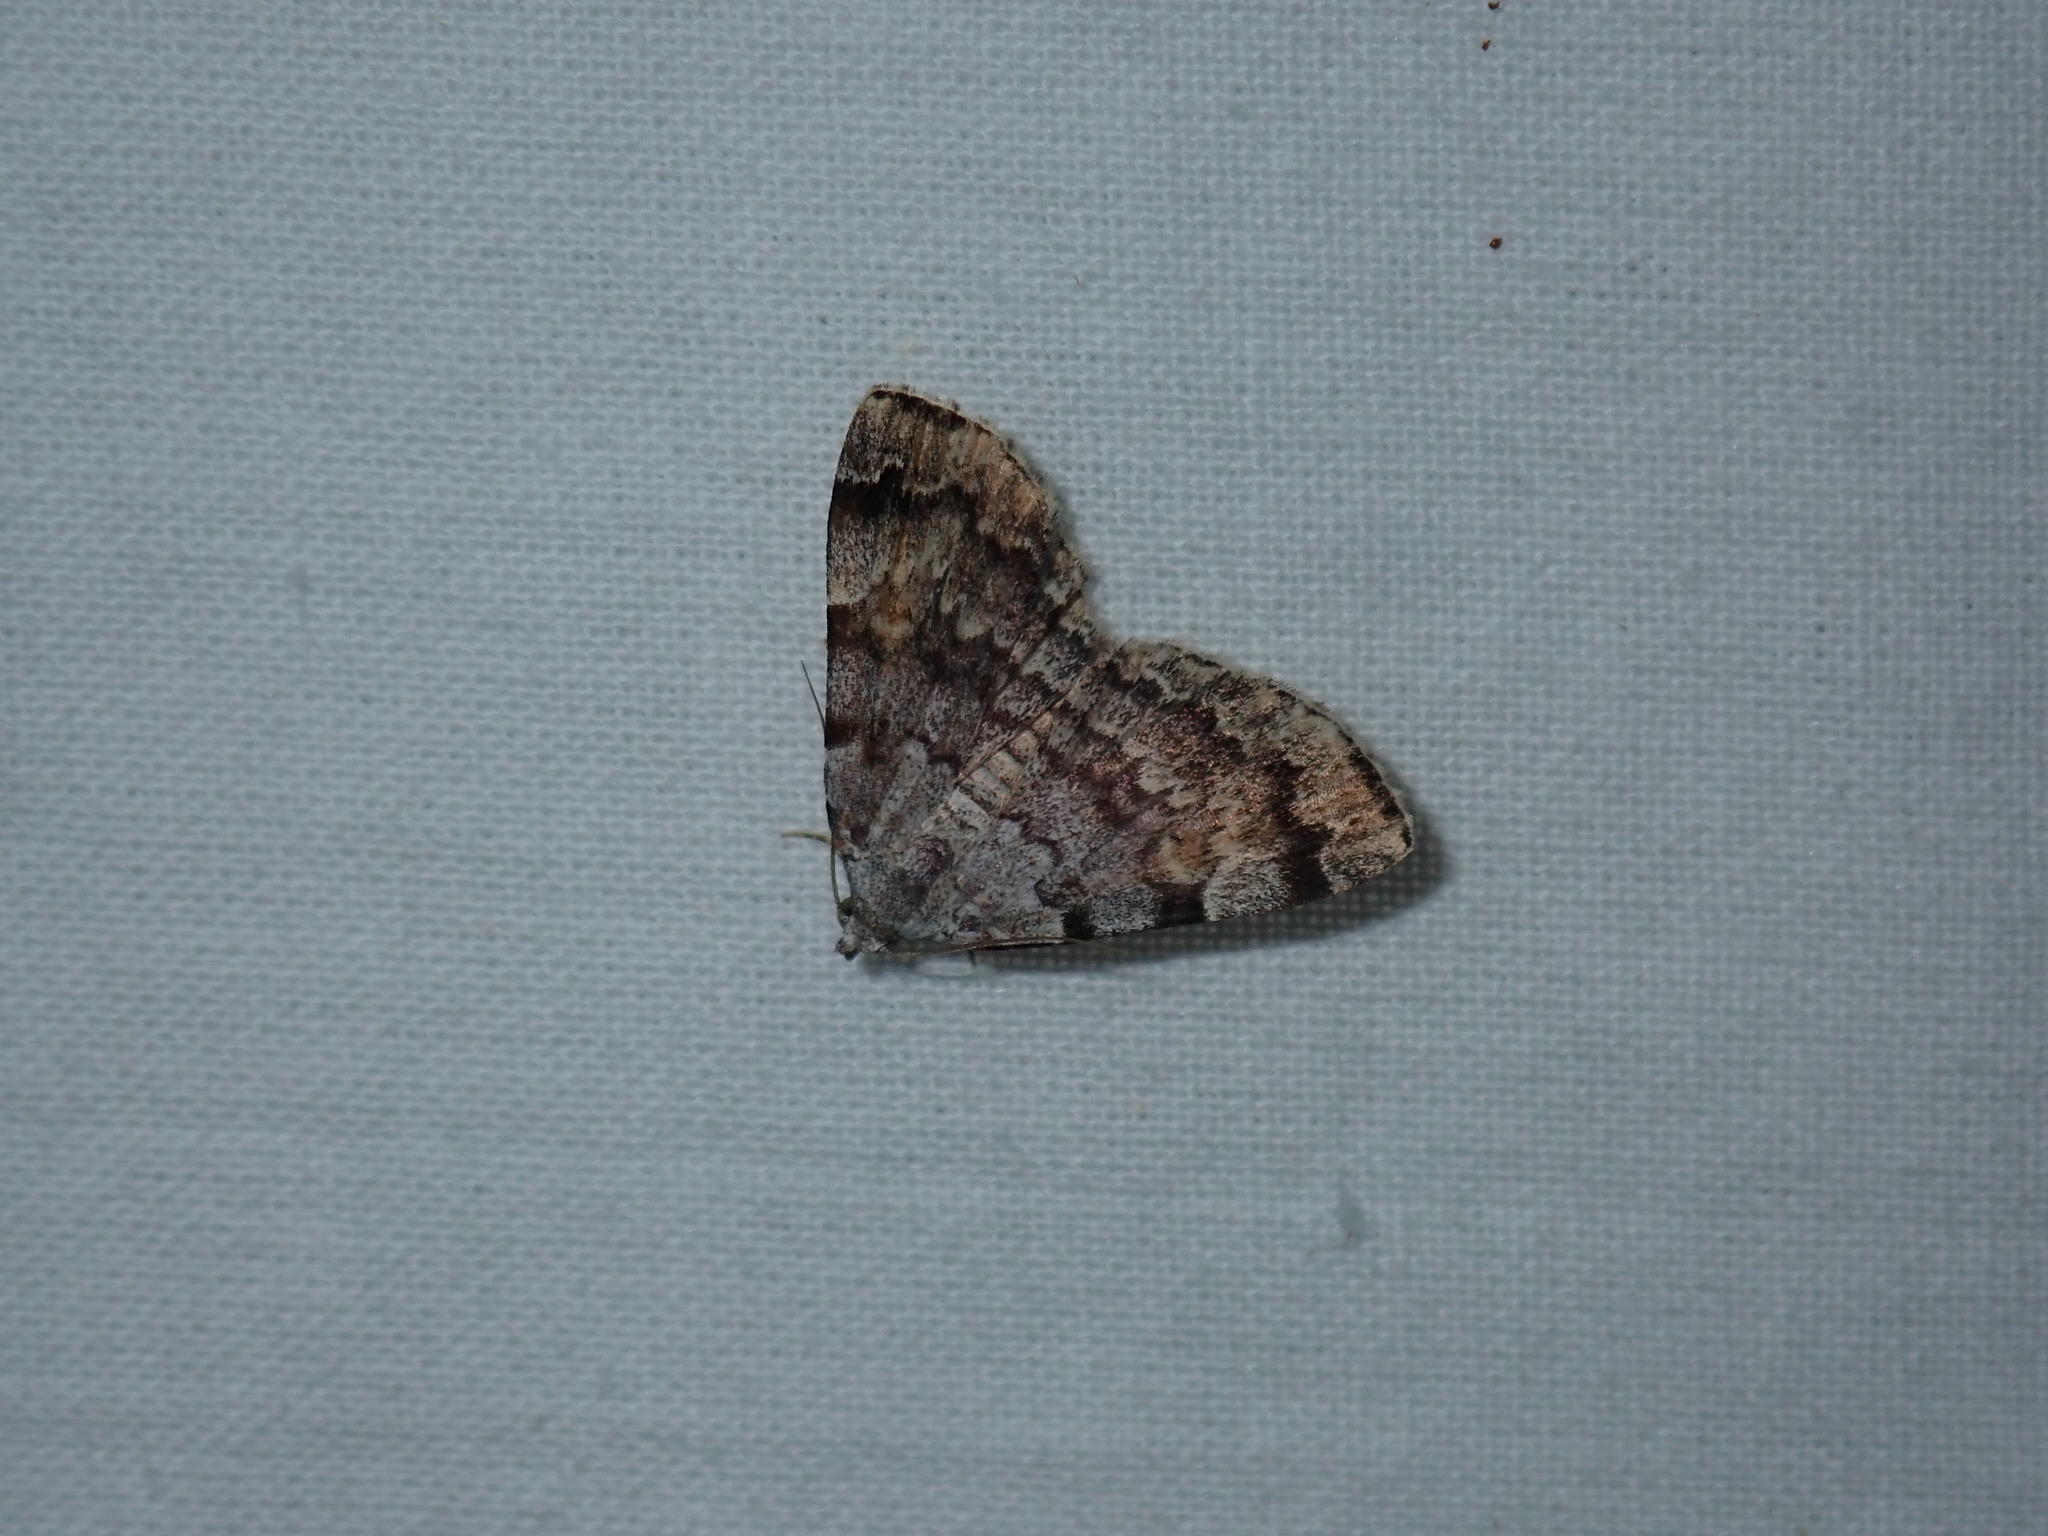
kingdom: Animalia
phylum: Arthropoda
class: Insecta
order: Lepidoptera
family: Erebidae
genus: Idia
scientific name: Idia americalis
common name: American idia moth
